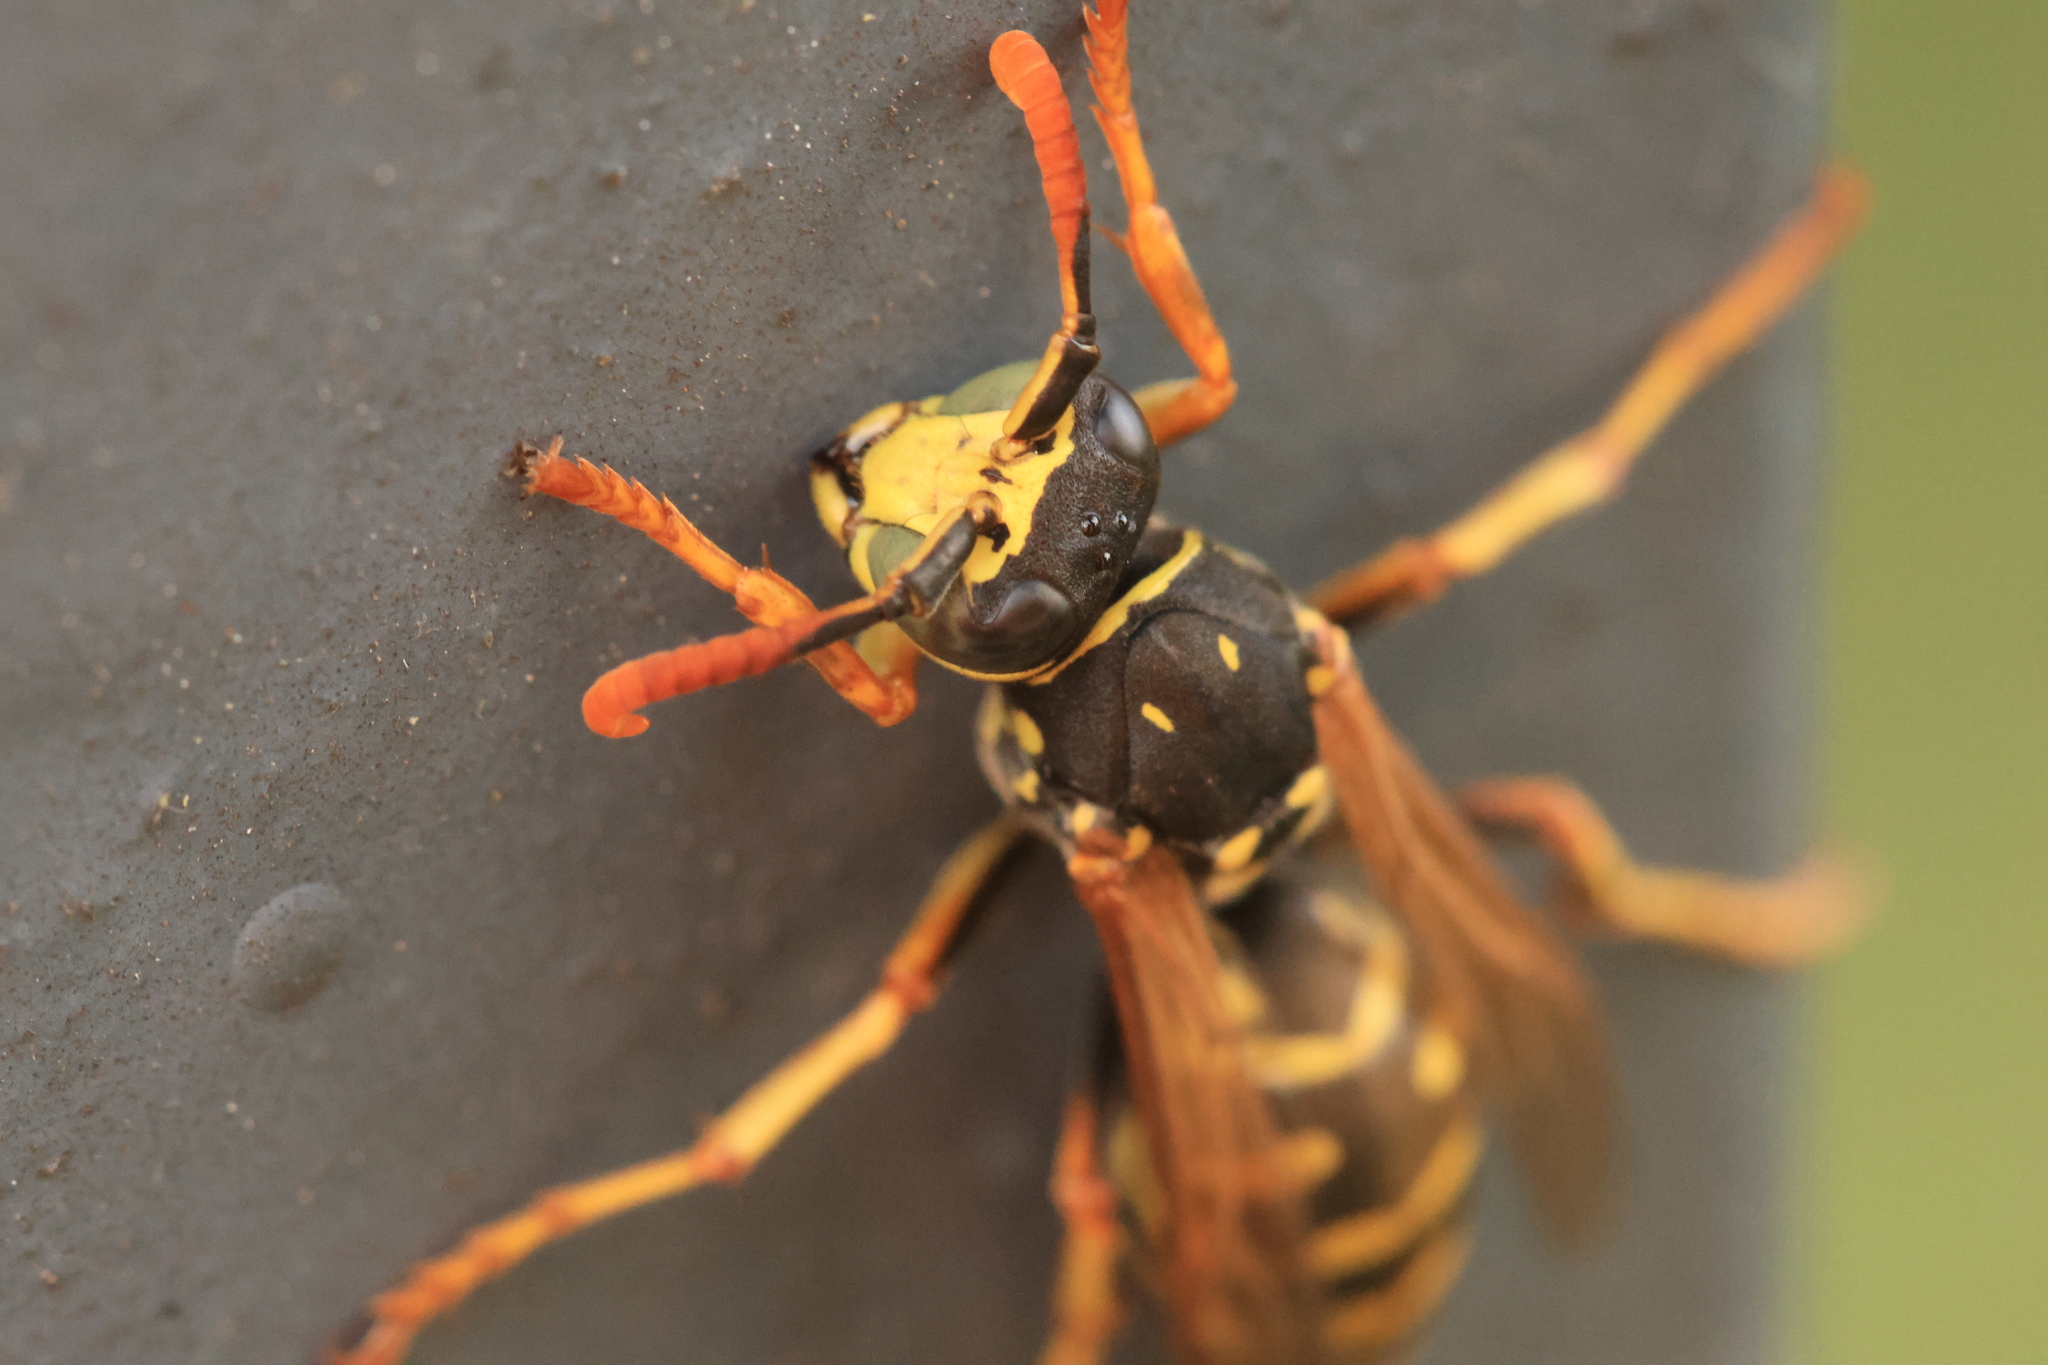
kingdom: Animalia
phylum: Arthropoda
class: Insecta
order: Hymenoptera
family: Eumenidae
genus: Polistes
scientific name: Polistes dominula
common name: Paper wasp
